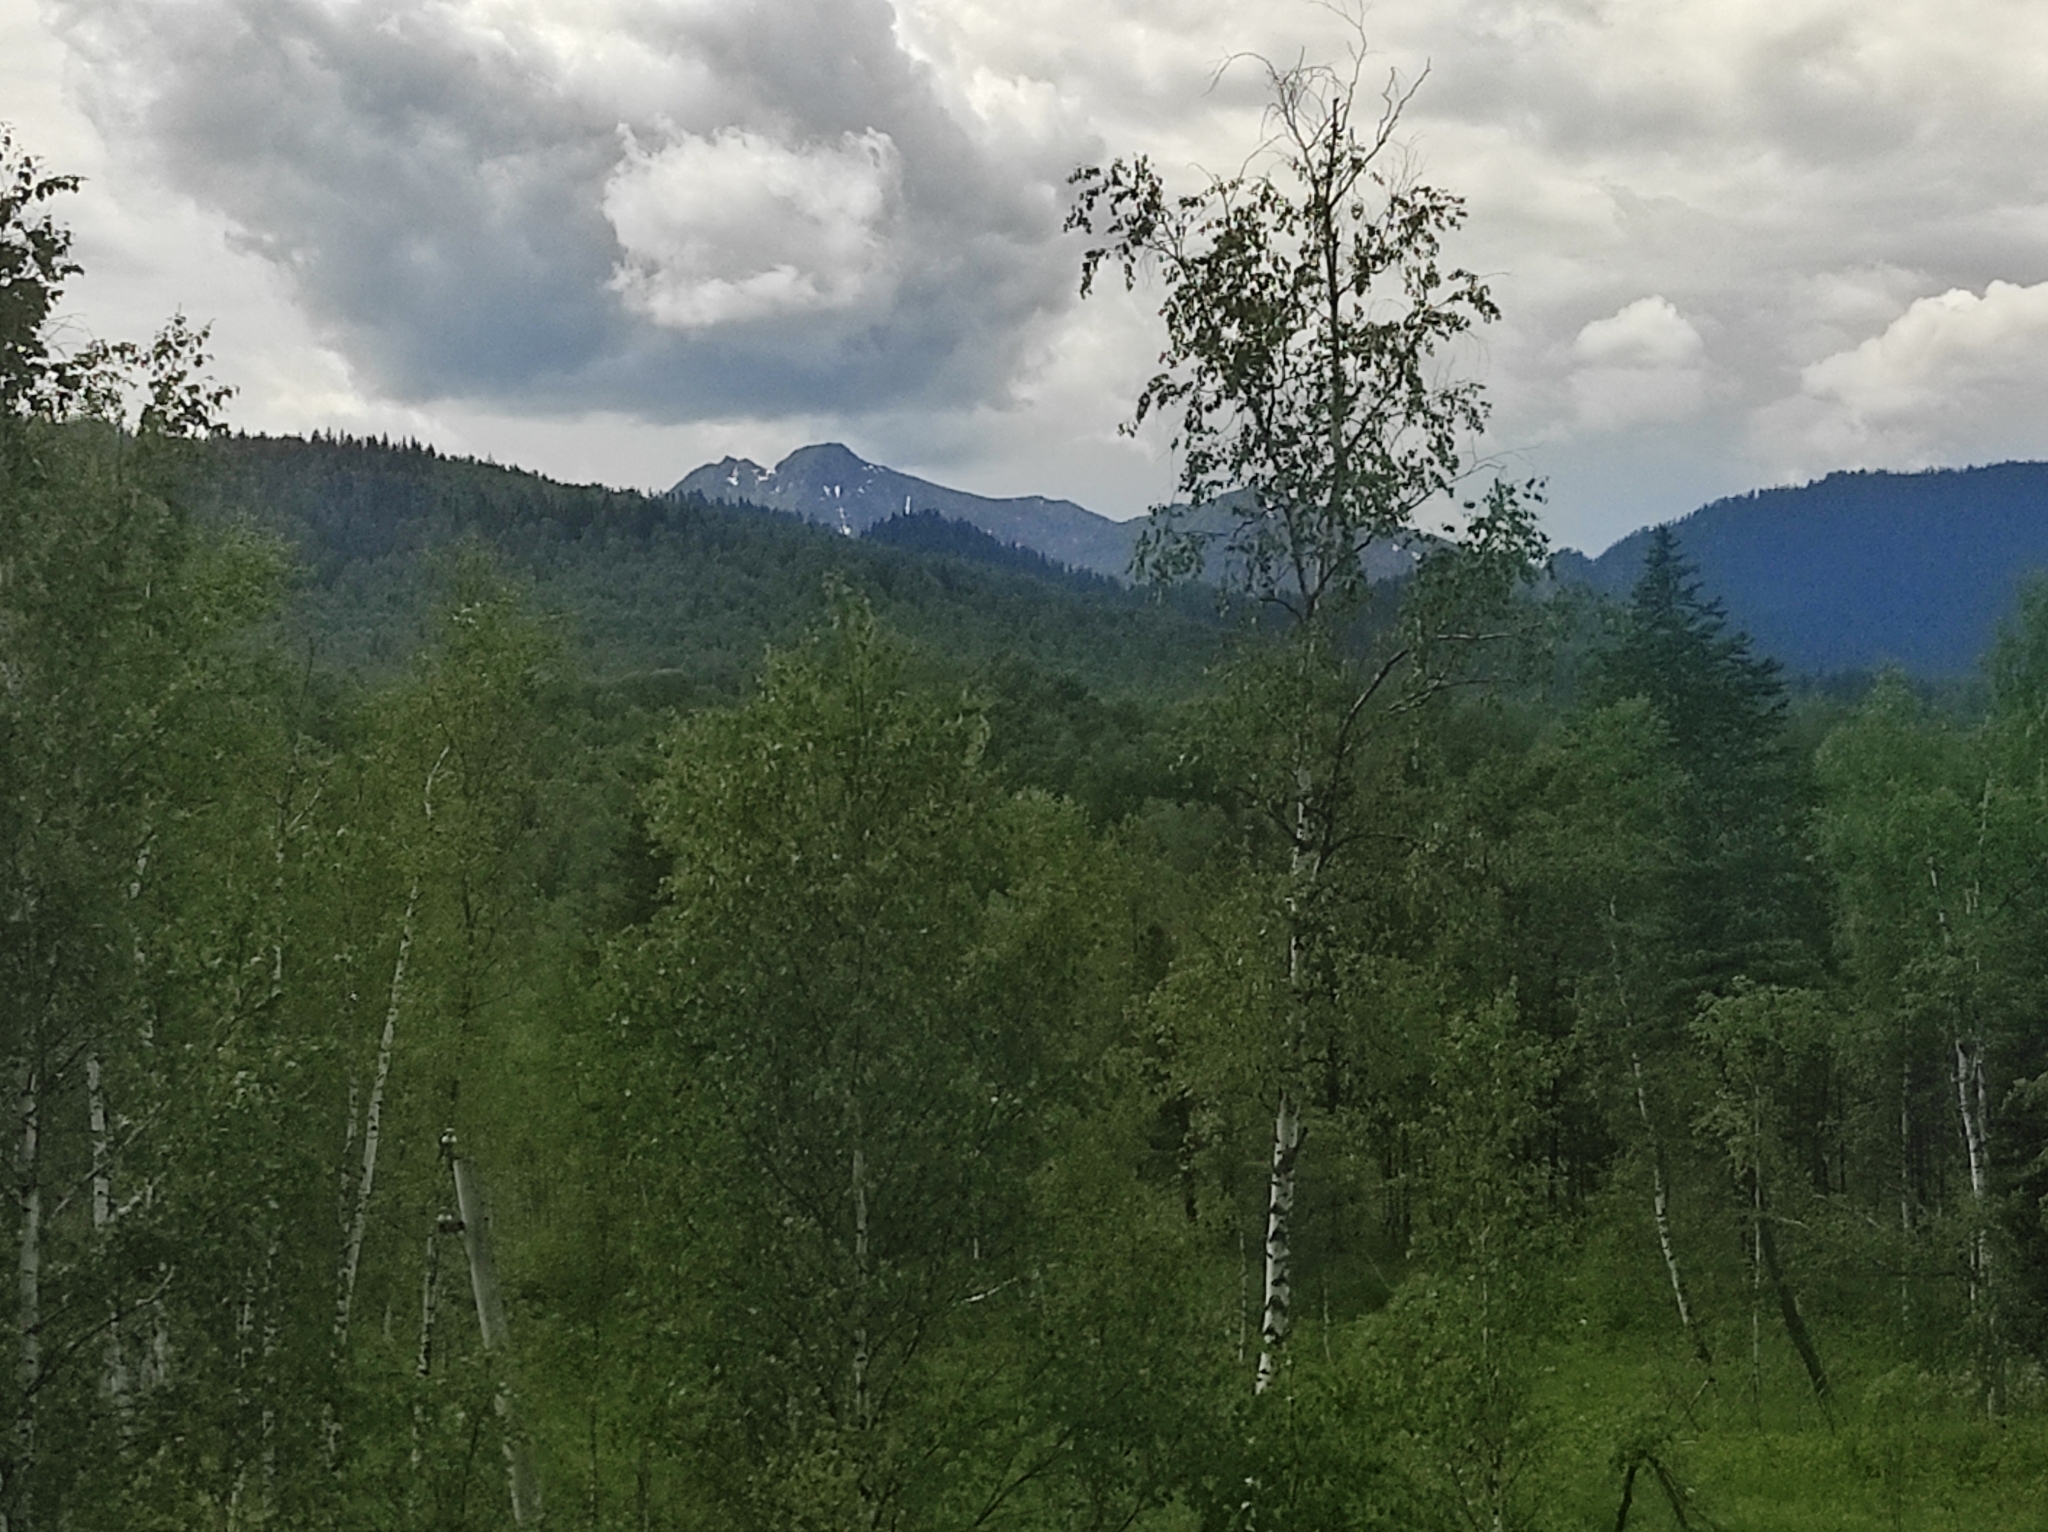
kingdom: Plantae
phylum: Tracheophyta
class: Magnoliopsida
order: Fagales
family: Betulaceae
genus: Betula
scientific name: Betula pendula
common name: Silver birch
